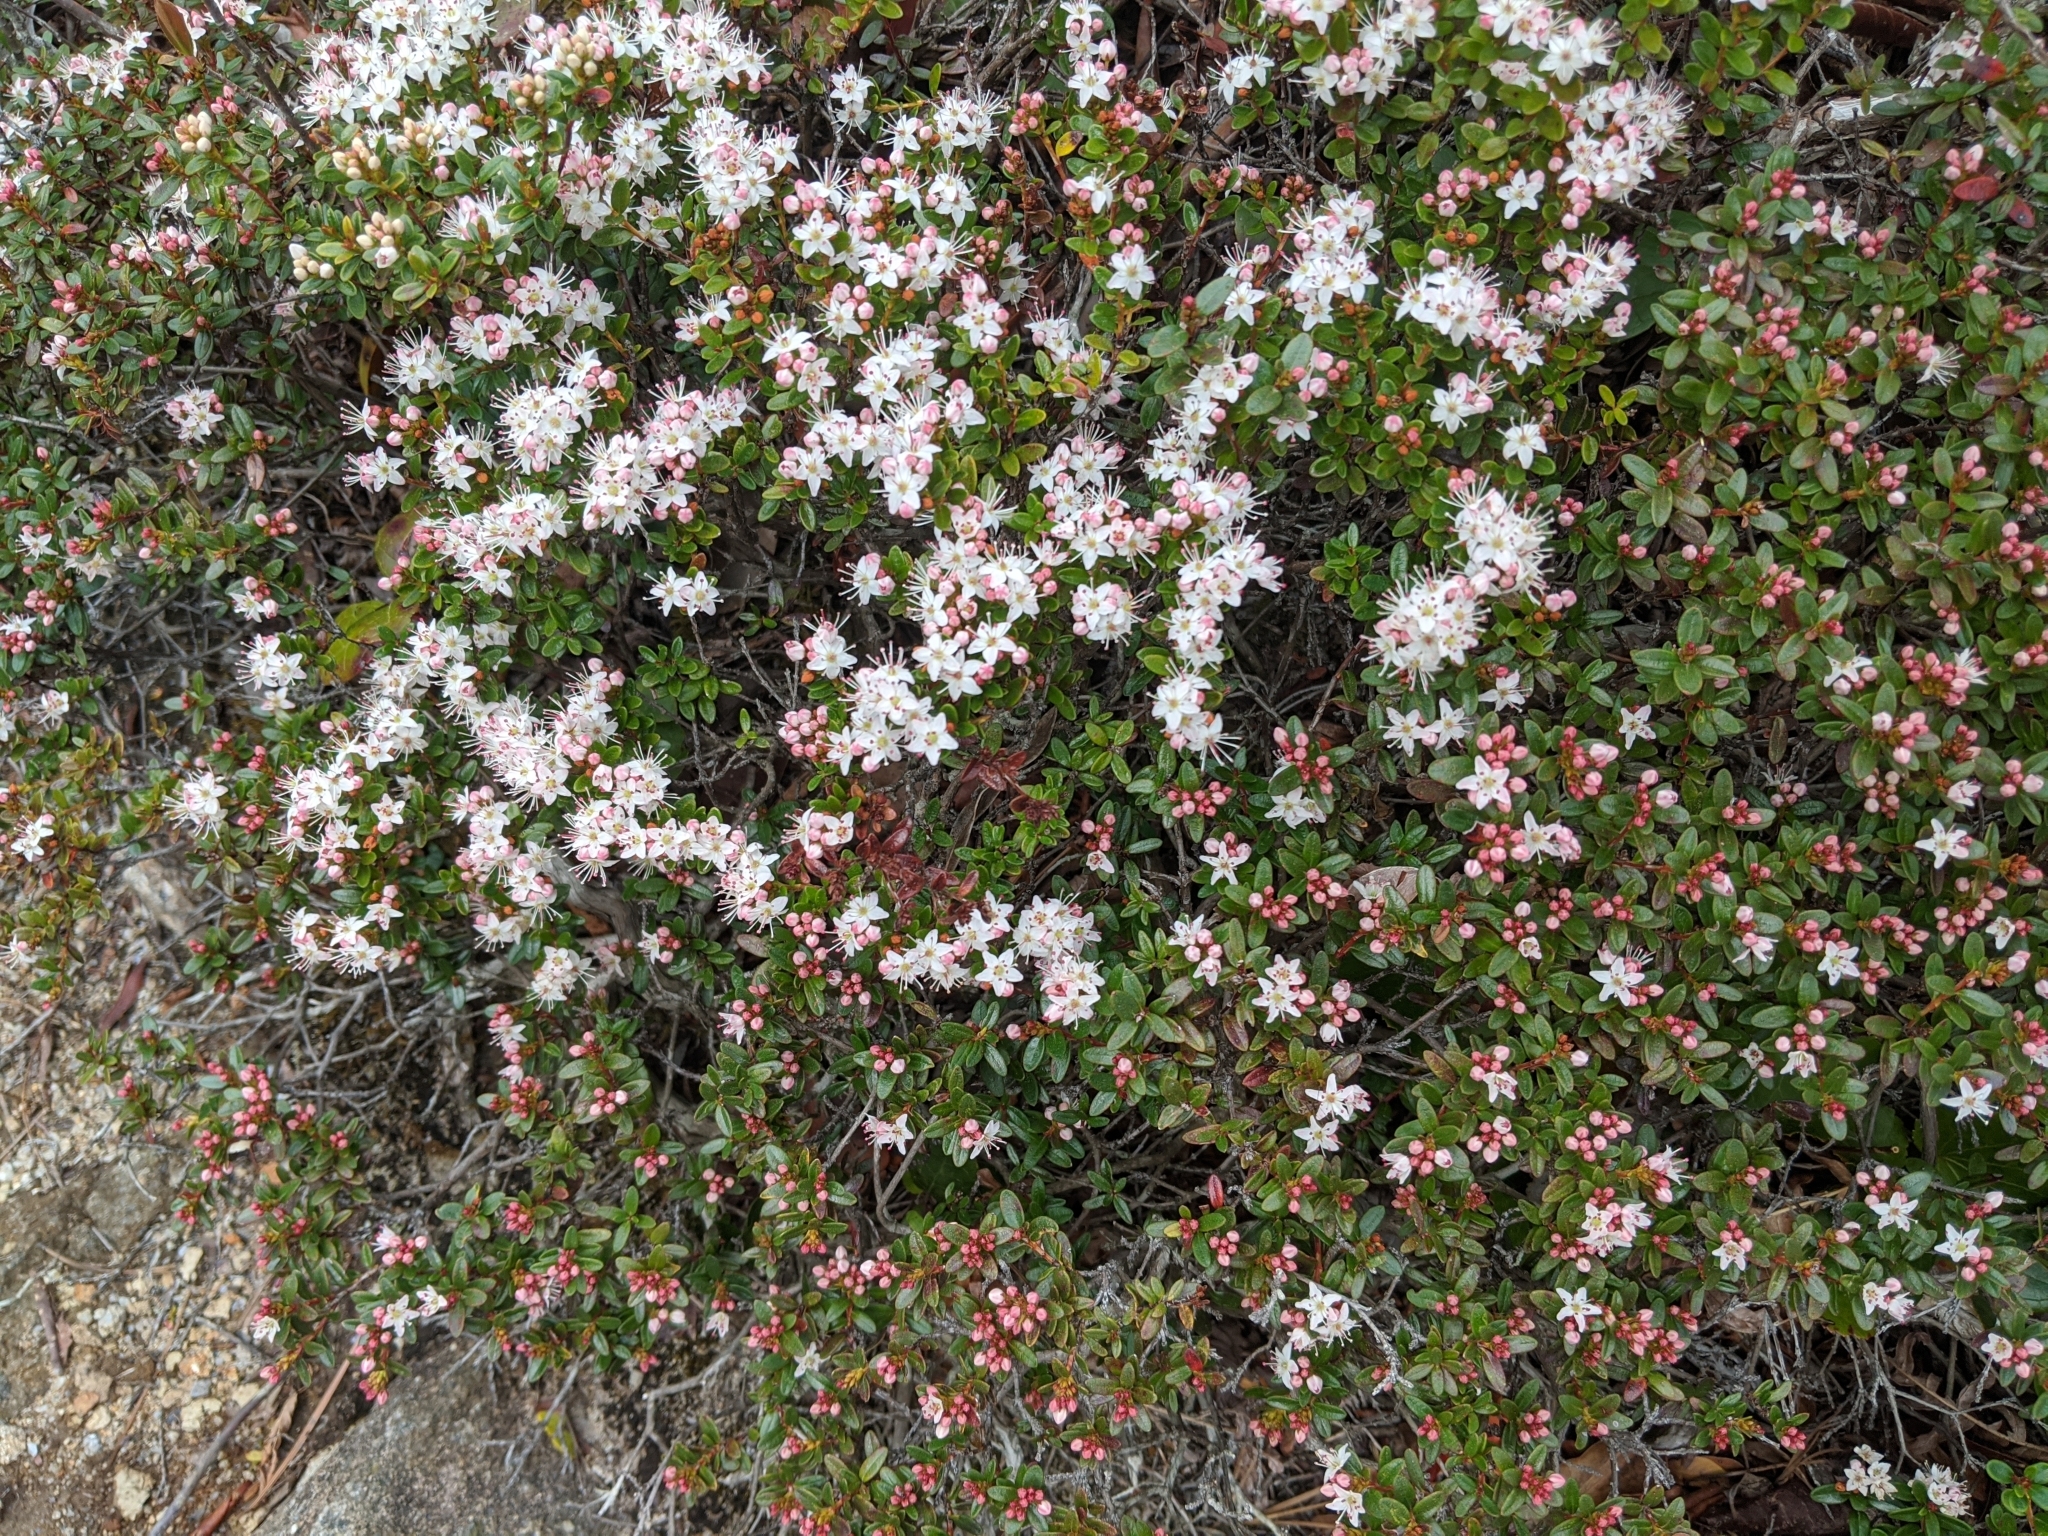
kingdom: Plantae
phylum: Tracheophyta
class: Magnoliopsida
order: Ericales
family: Ericaceae
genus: Kalmia
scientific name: Kalmia buxifolia
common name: Sandmyrtle
